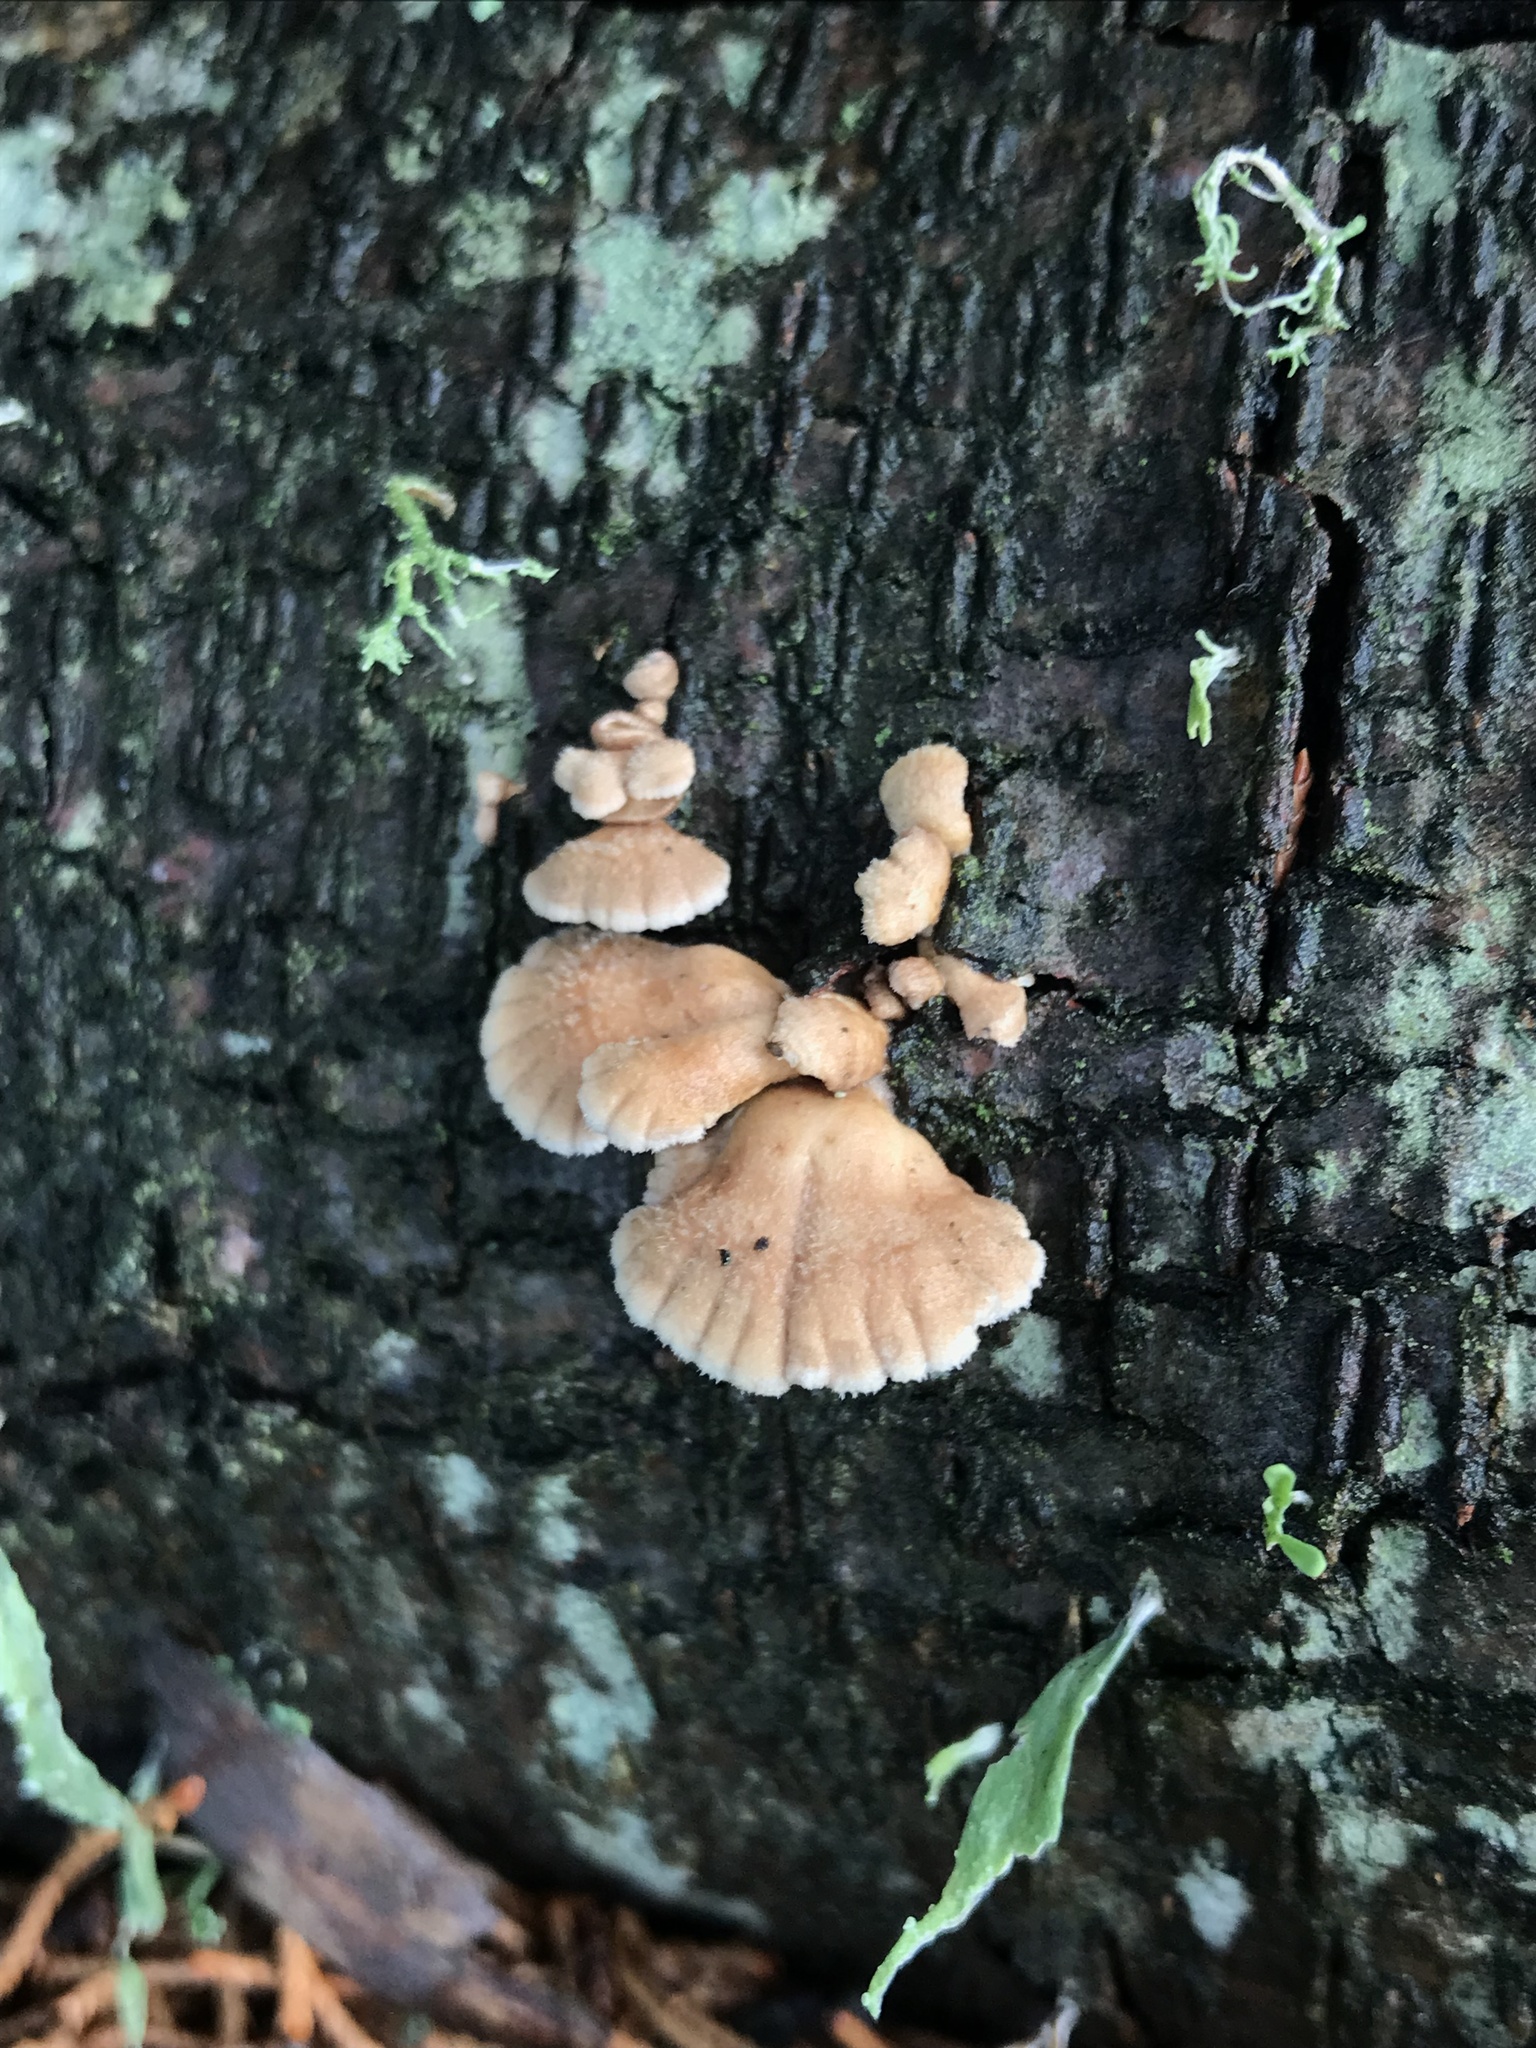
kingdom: Fungi
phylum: Basidiomycota
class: Agaricomycetes
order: Agaricales
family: Schizophyllaceae
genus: Schizophyllum
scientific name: Schizophyllum commune
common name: Common porecrust
